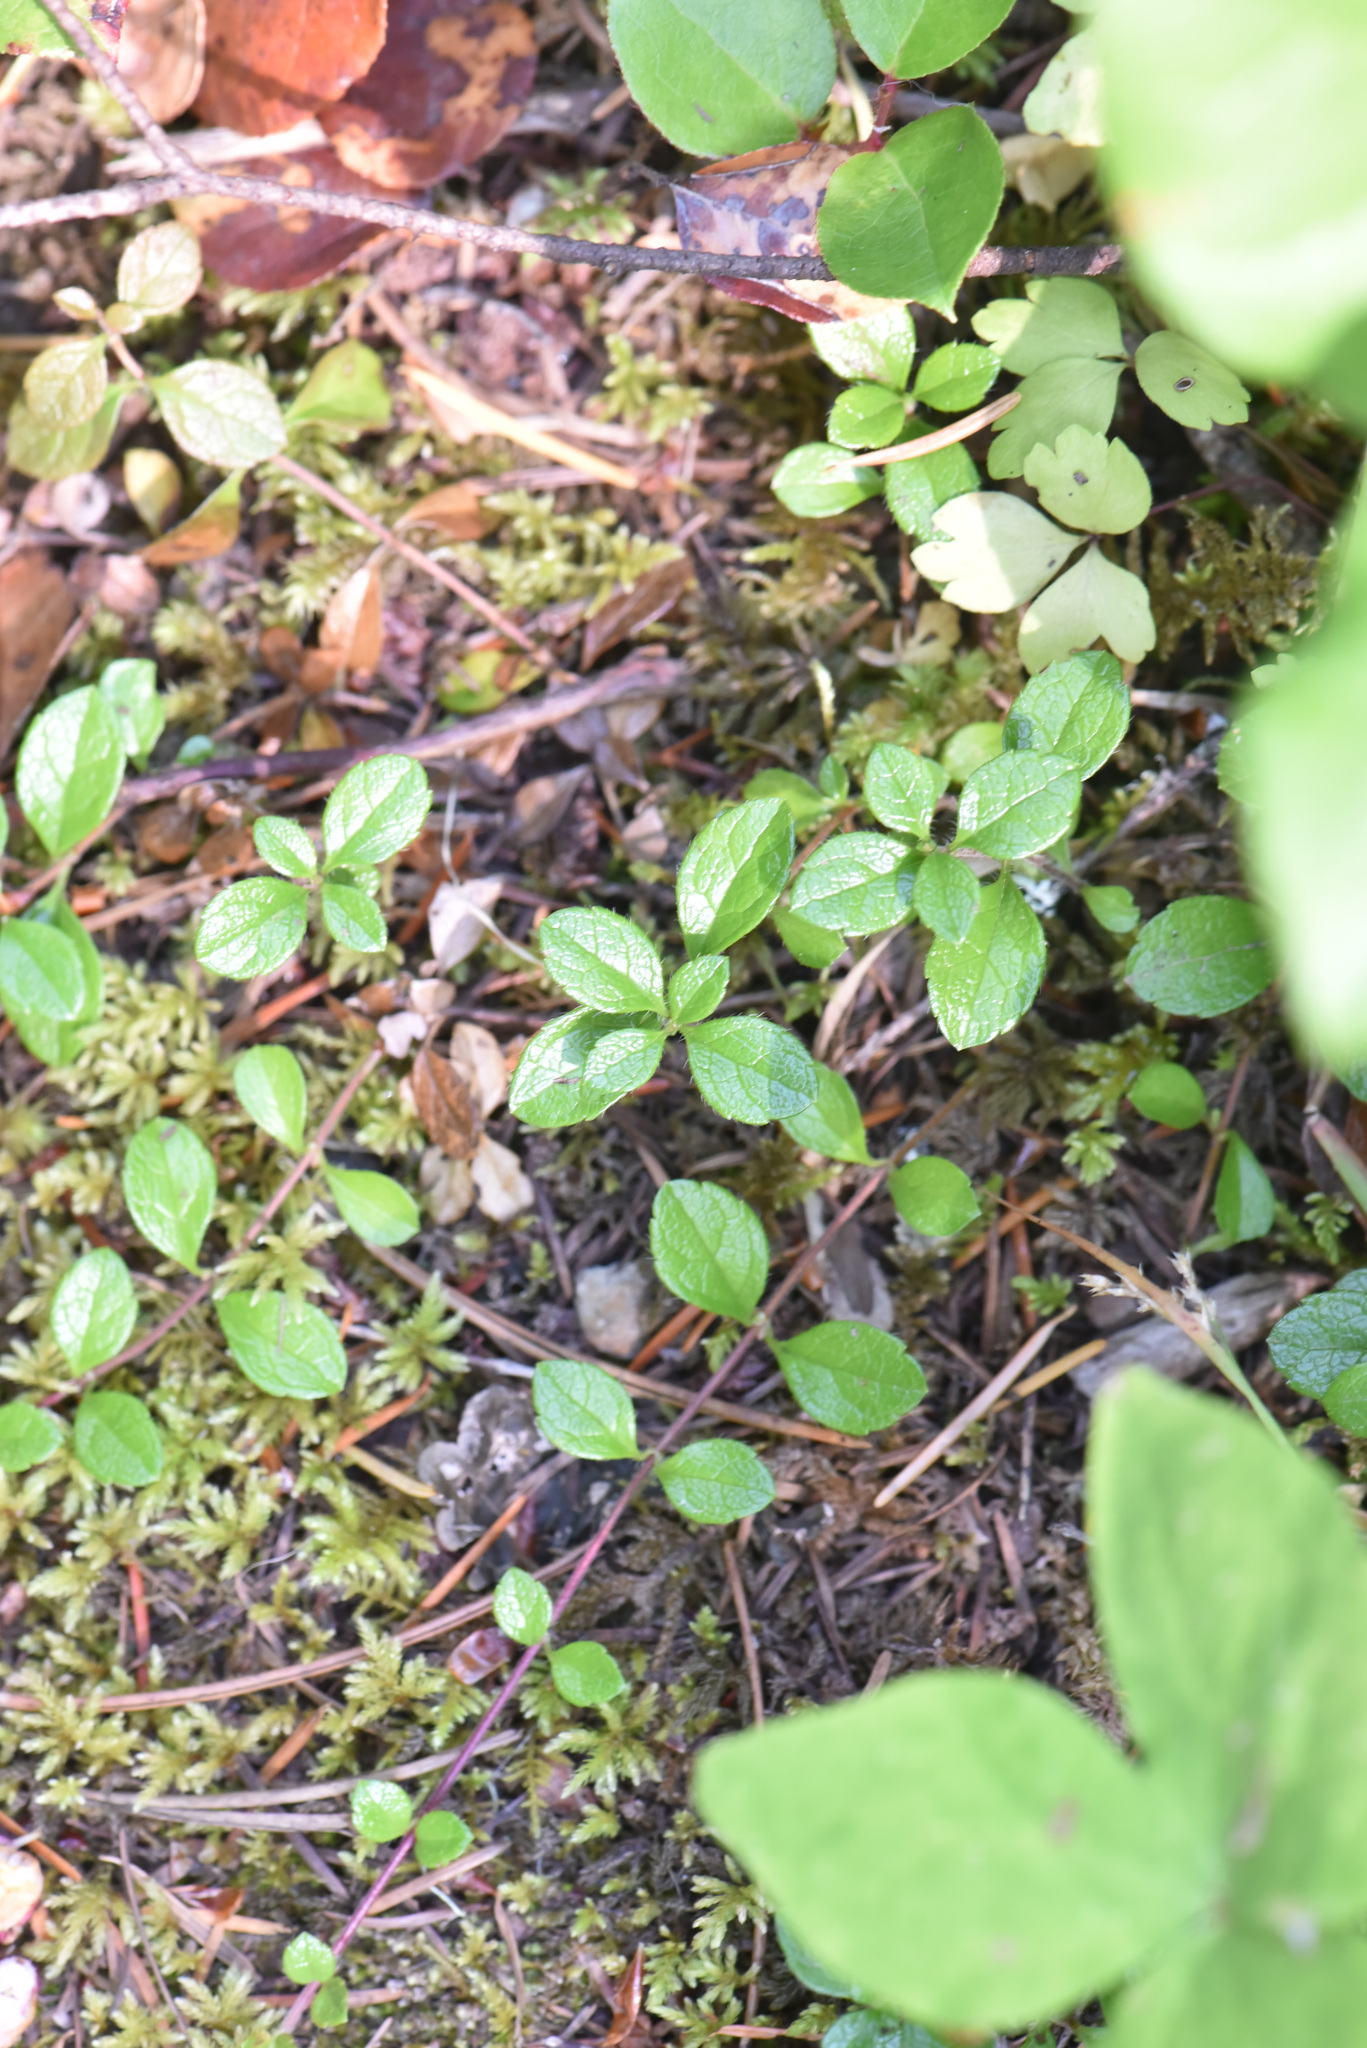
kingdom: Plantae
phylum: Tracheophyta
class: Magnoliopsida
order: Dipsacales
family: Caprifoliaceae
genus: Linnaea
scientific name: Linnaea borealis
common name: Twinflower
